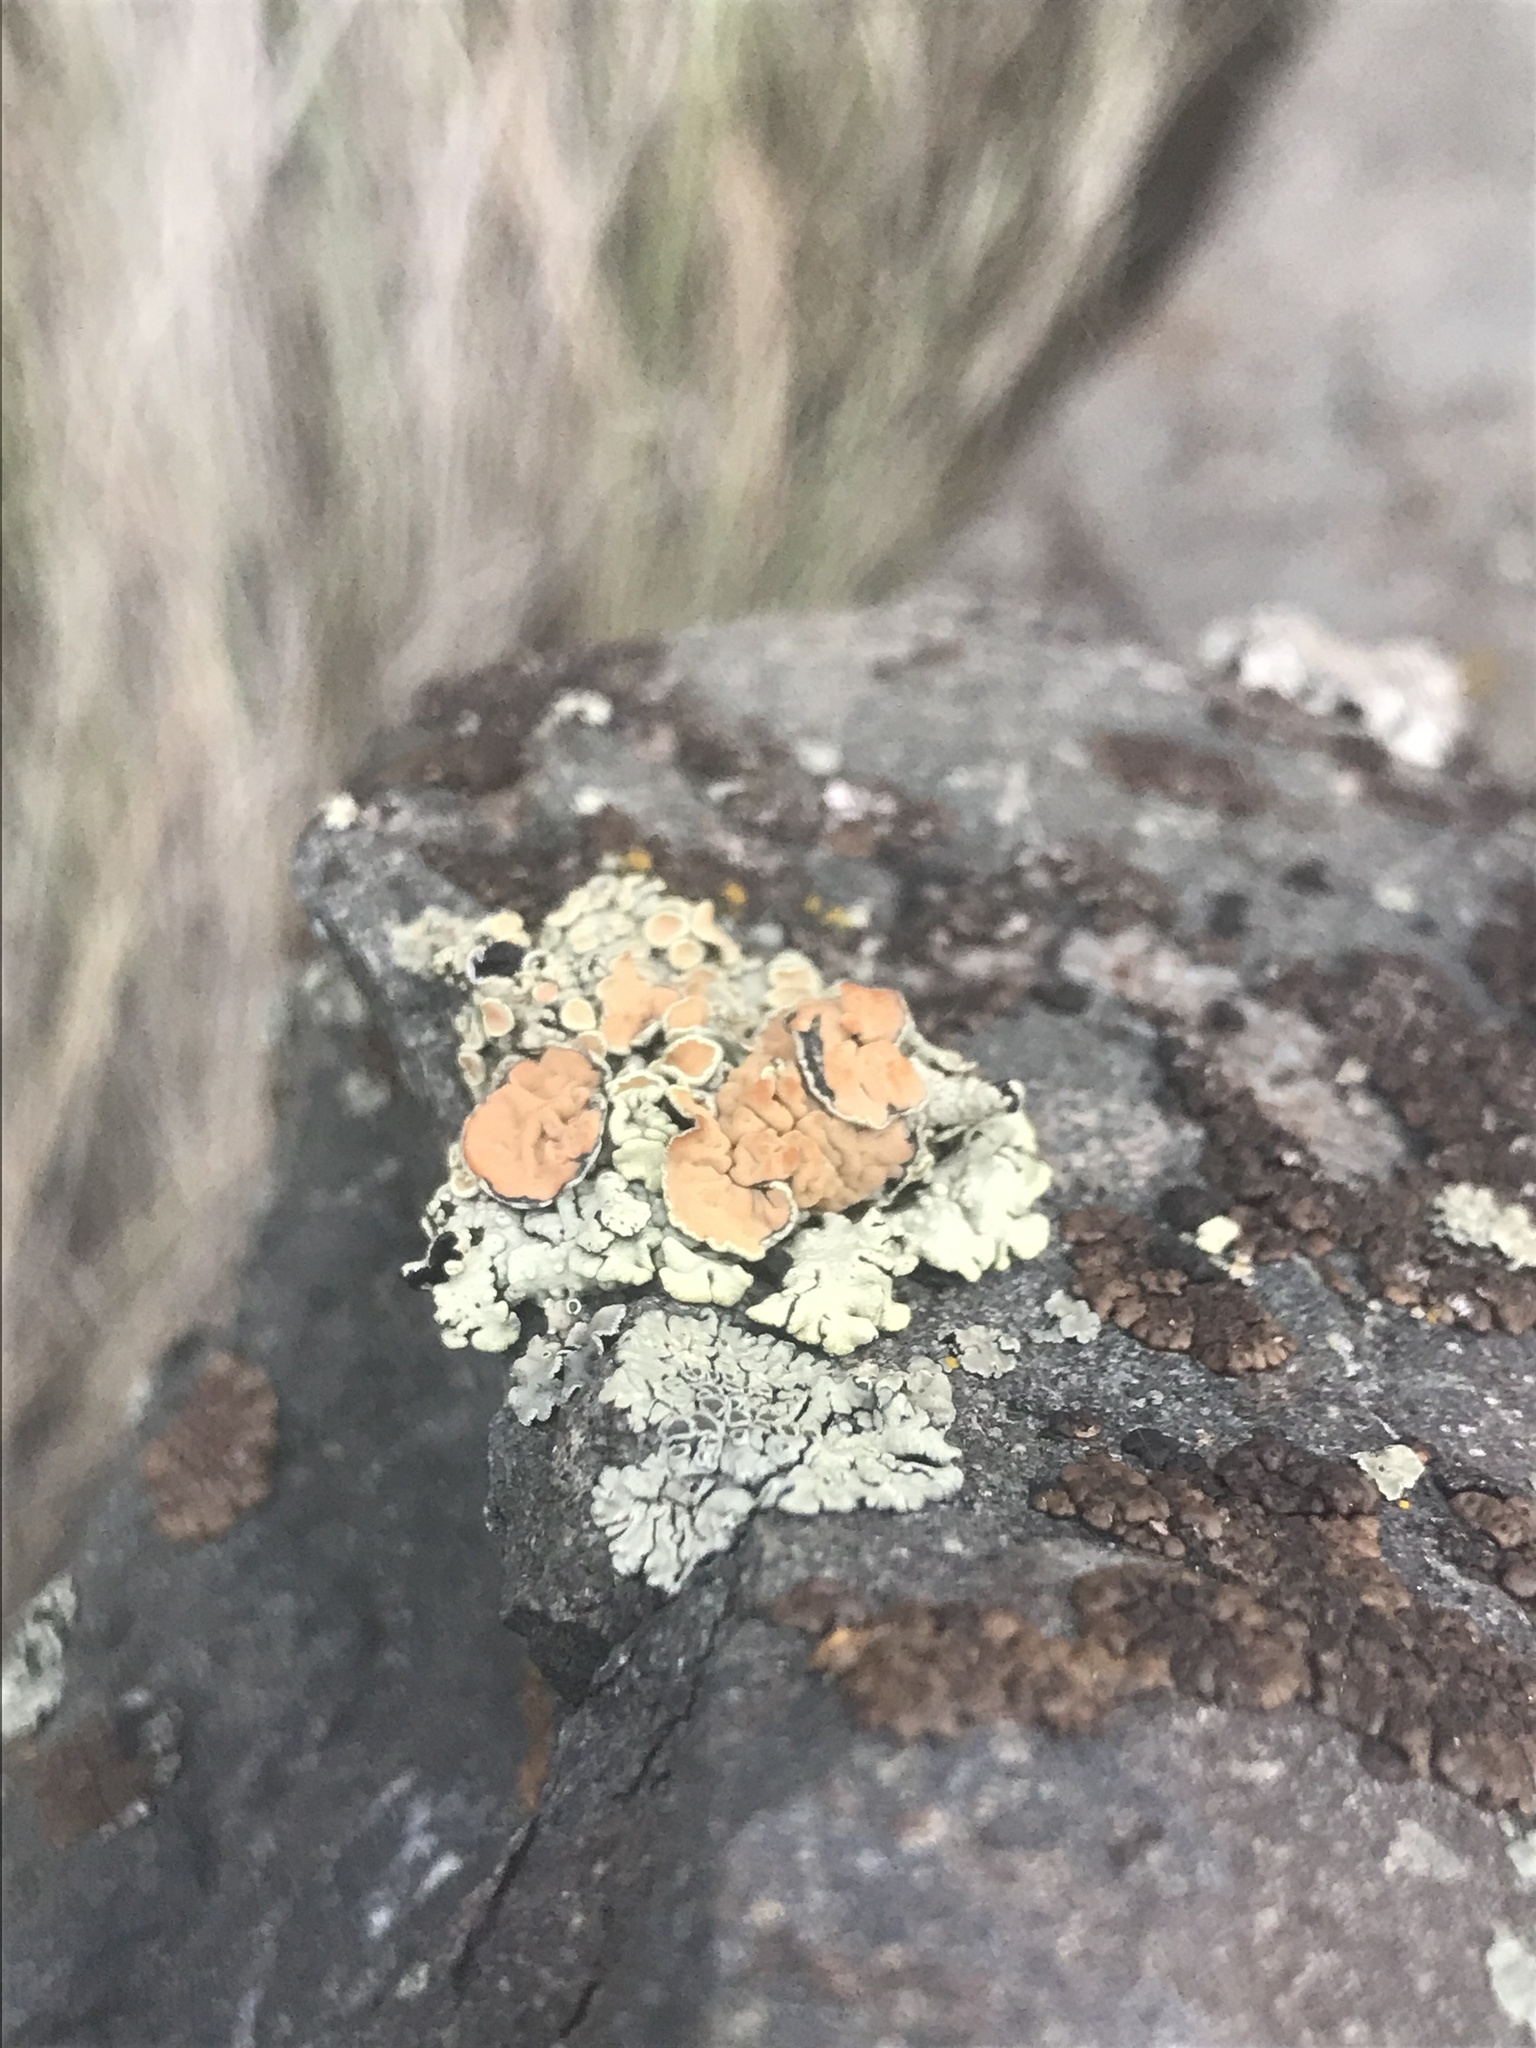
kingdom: Fungi
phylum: Ascomycota
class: Lecanoromycetes
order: Lecanorales
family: Lecanoraceae
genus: Omphalodina
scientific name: Omphalodina chrysoleuca
